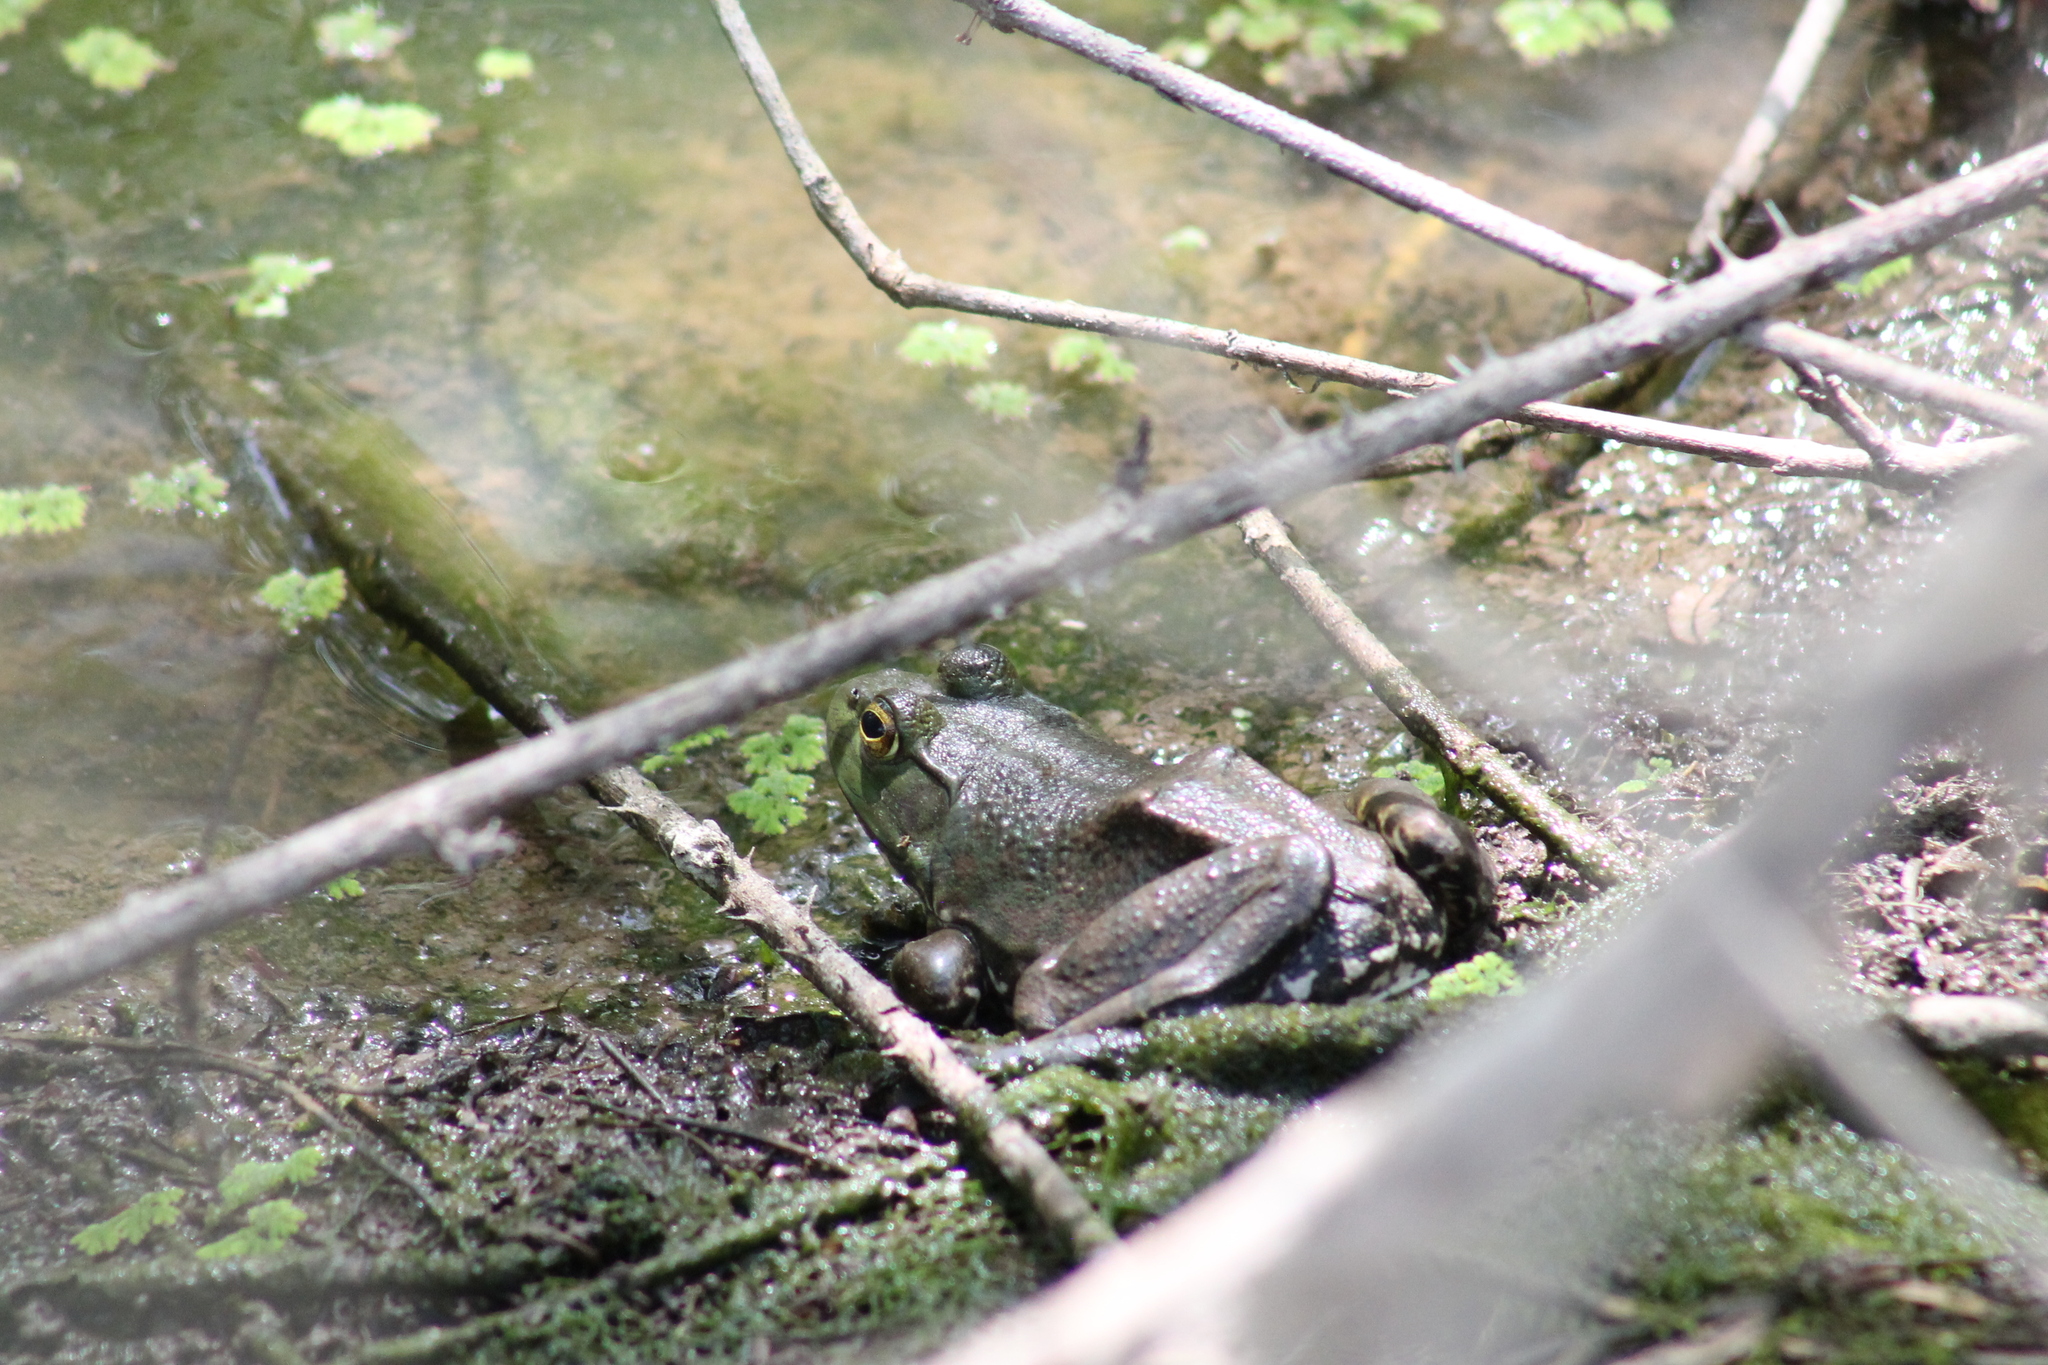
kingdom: Animalia
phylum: Chordata
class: Amphibia
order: Anura
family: Ranidae
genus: Lithobates
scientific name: Lithobates catesbeianus
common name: American bullfrog
